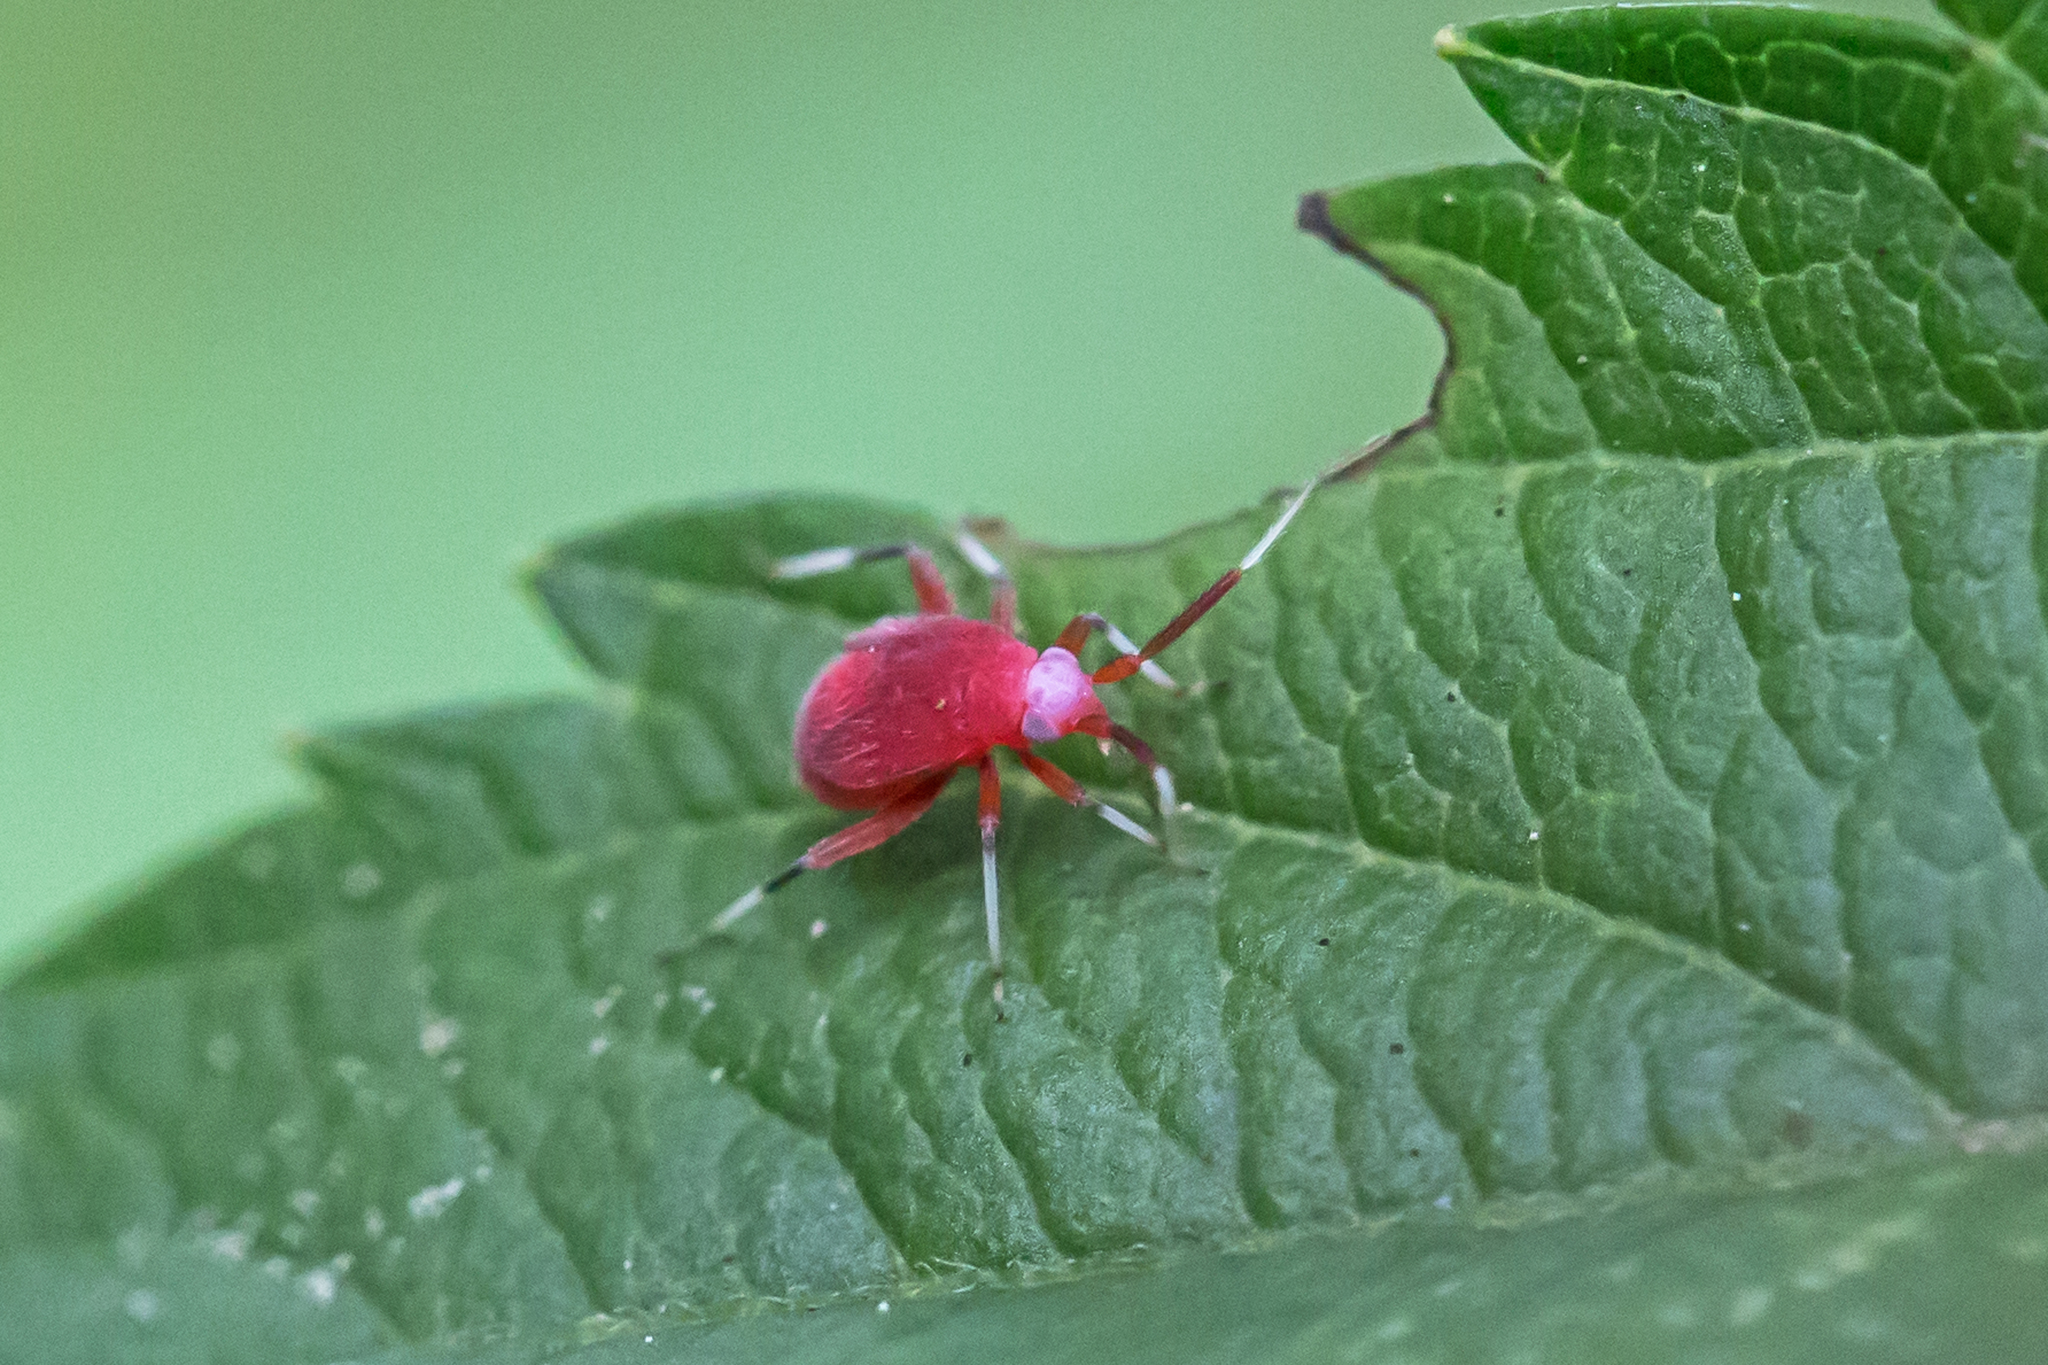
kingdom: Animalia
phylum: Arthropoda
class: Insecta
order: Hemiptera
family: Miridae
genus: Coccobaphes
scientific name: Coccobaphes frontifer
